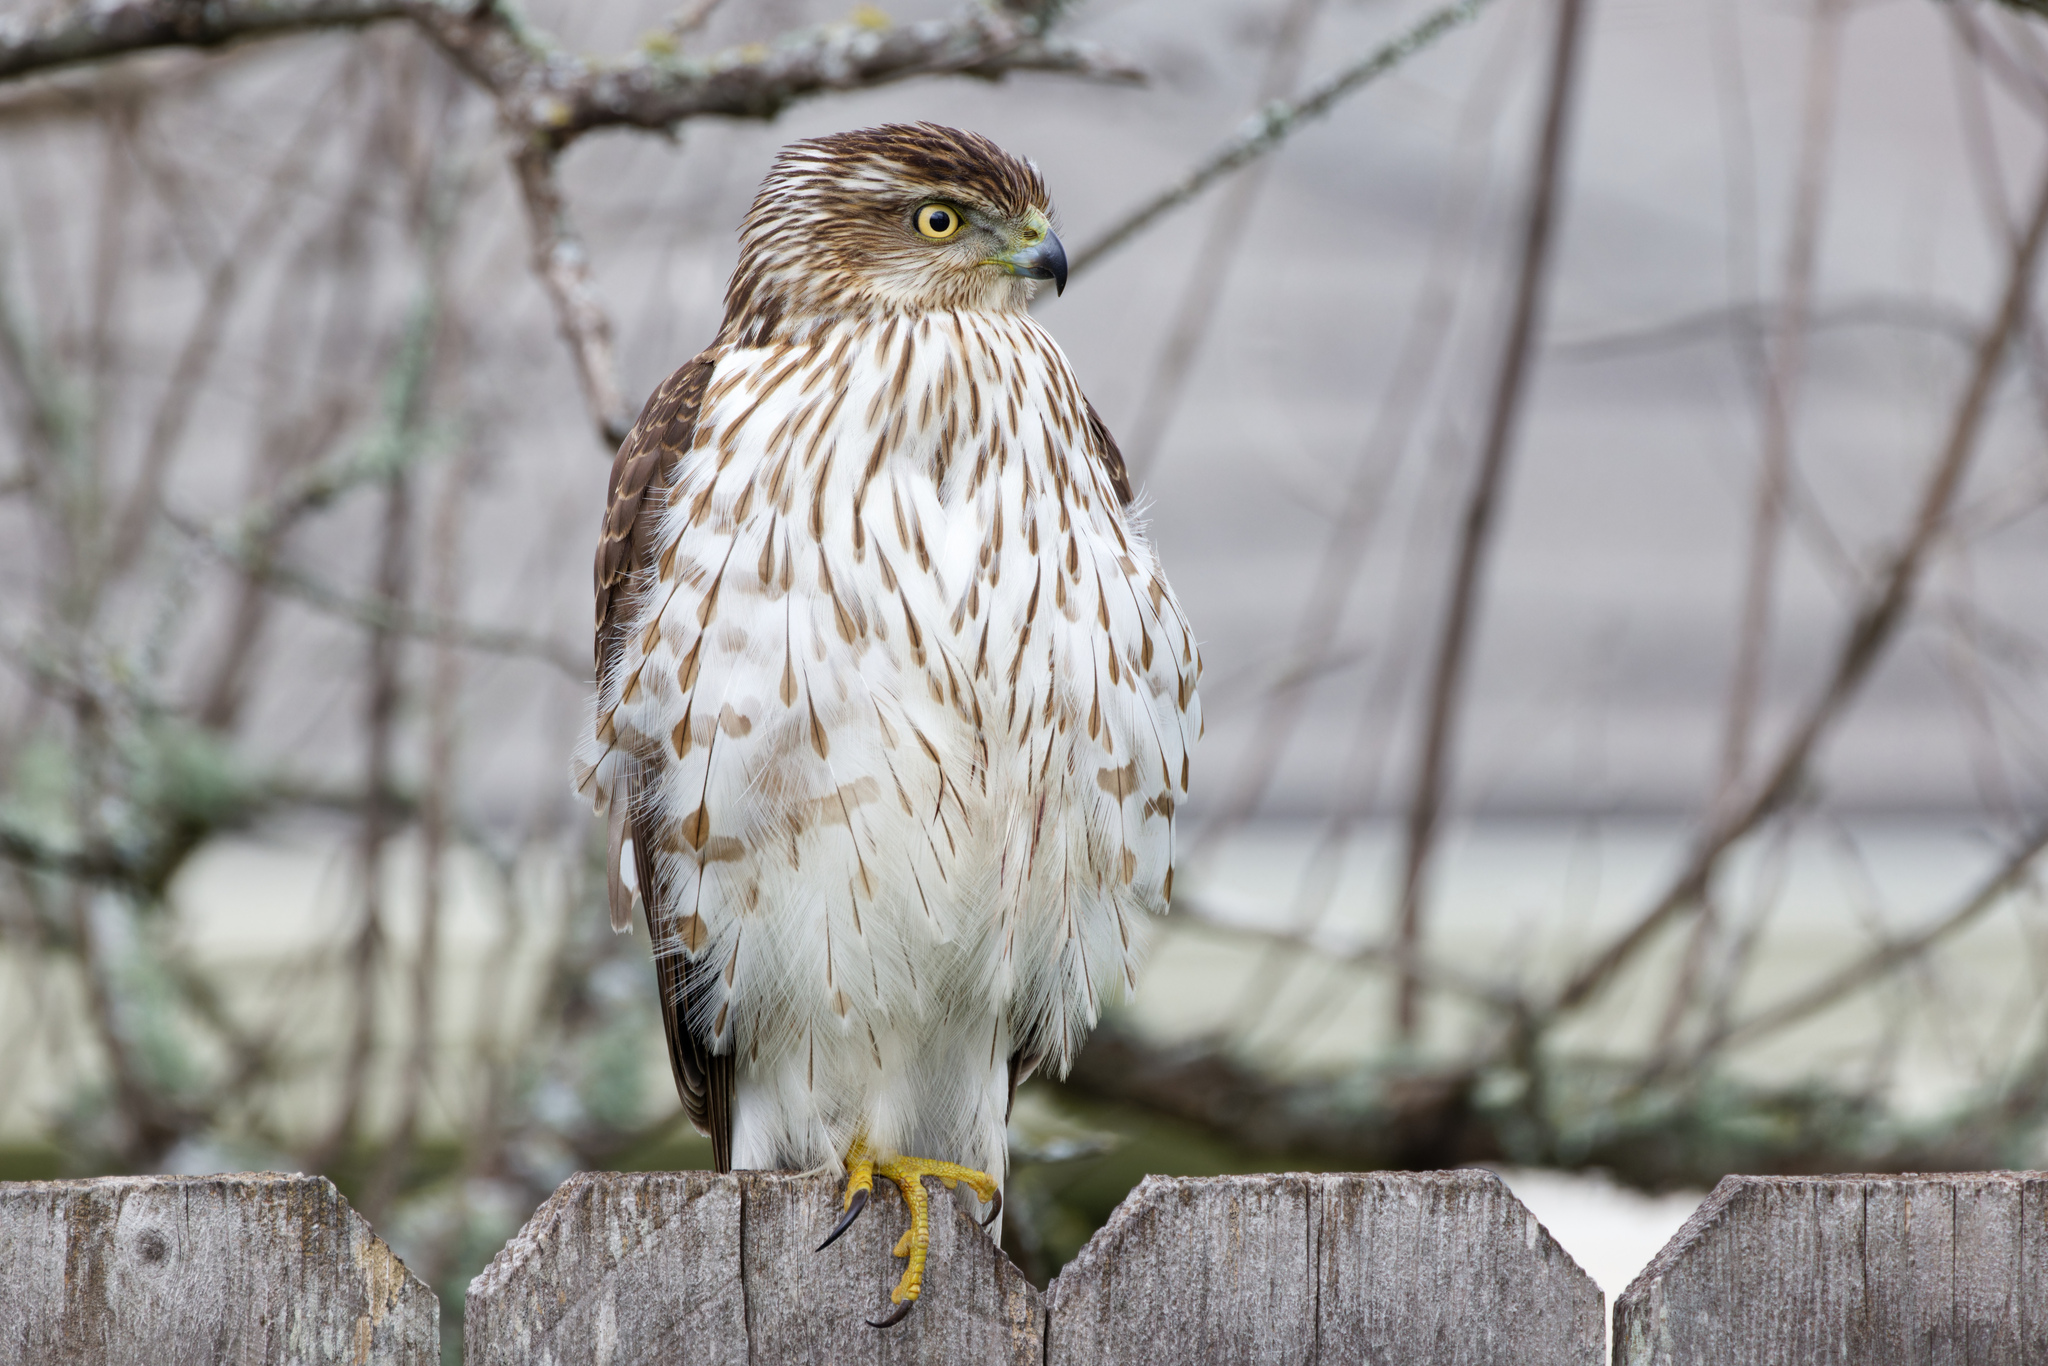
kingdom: Animalia
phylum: Chordata
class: Aves
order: Accipitriformes
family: Accipitridae
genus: Accipiter
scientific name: Accipiter cooperii
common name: Cooper's hawk
